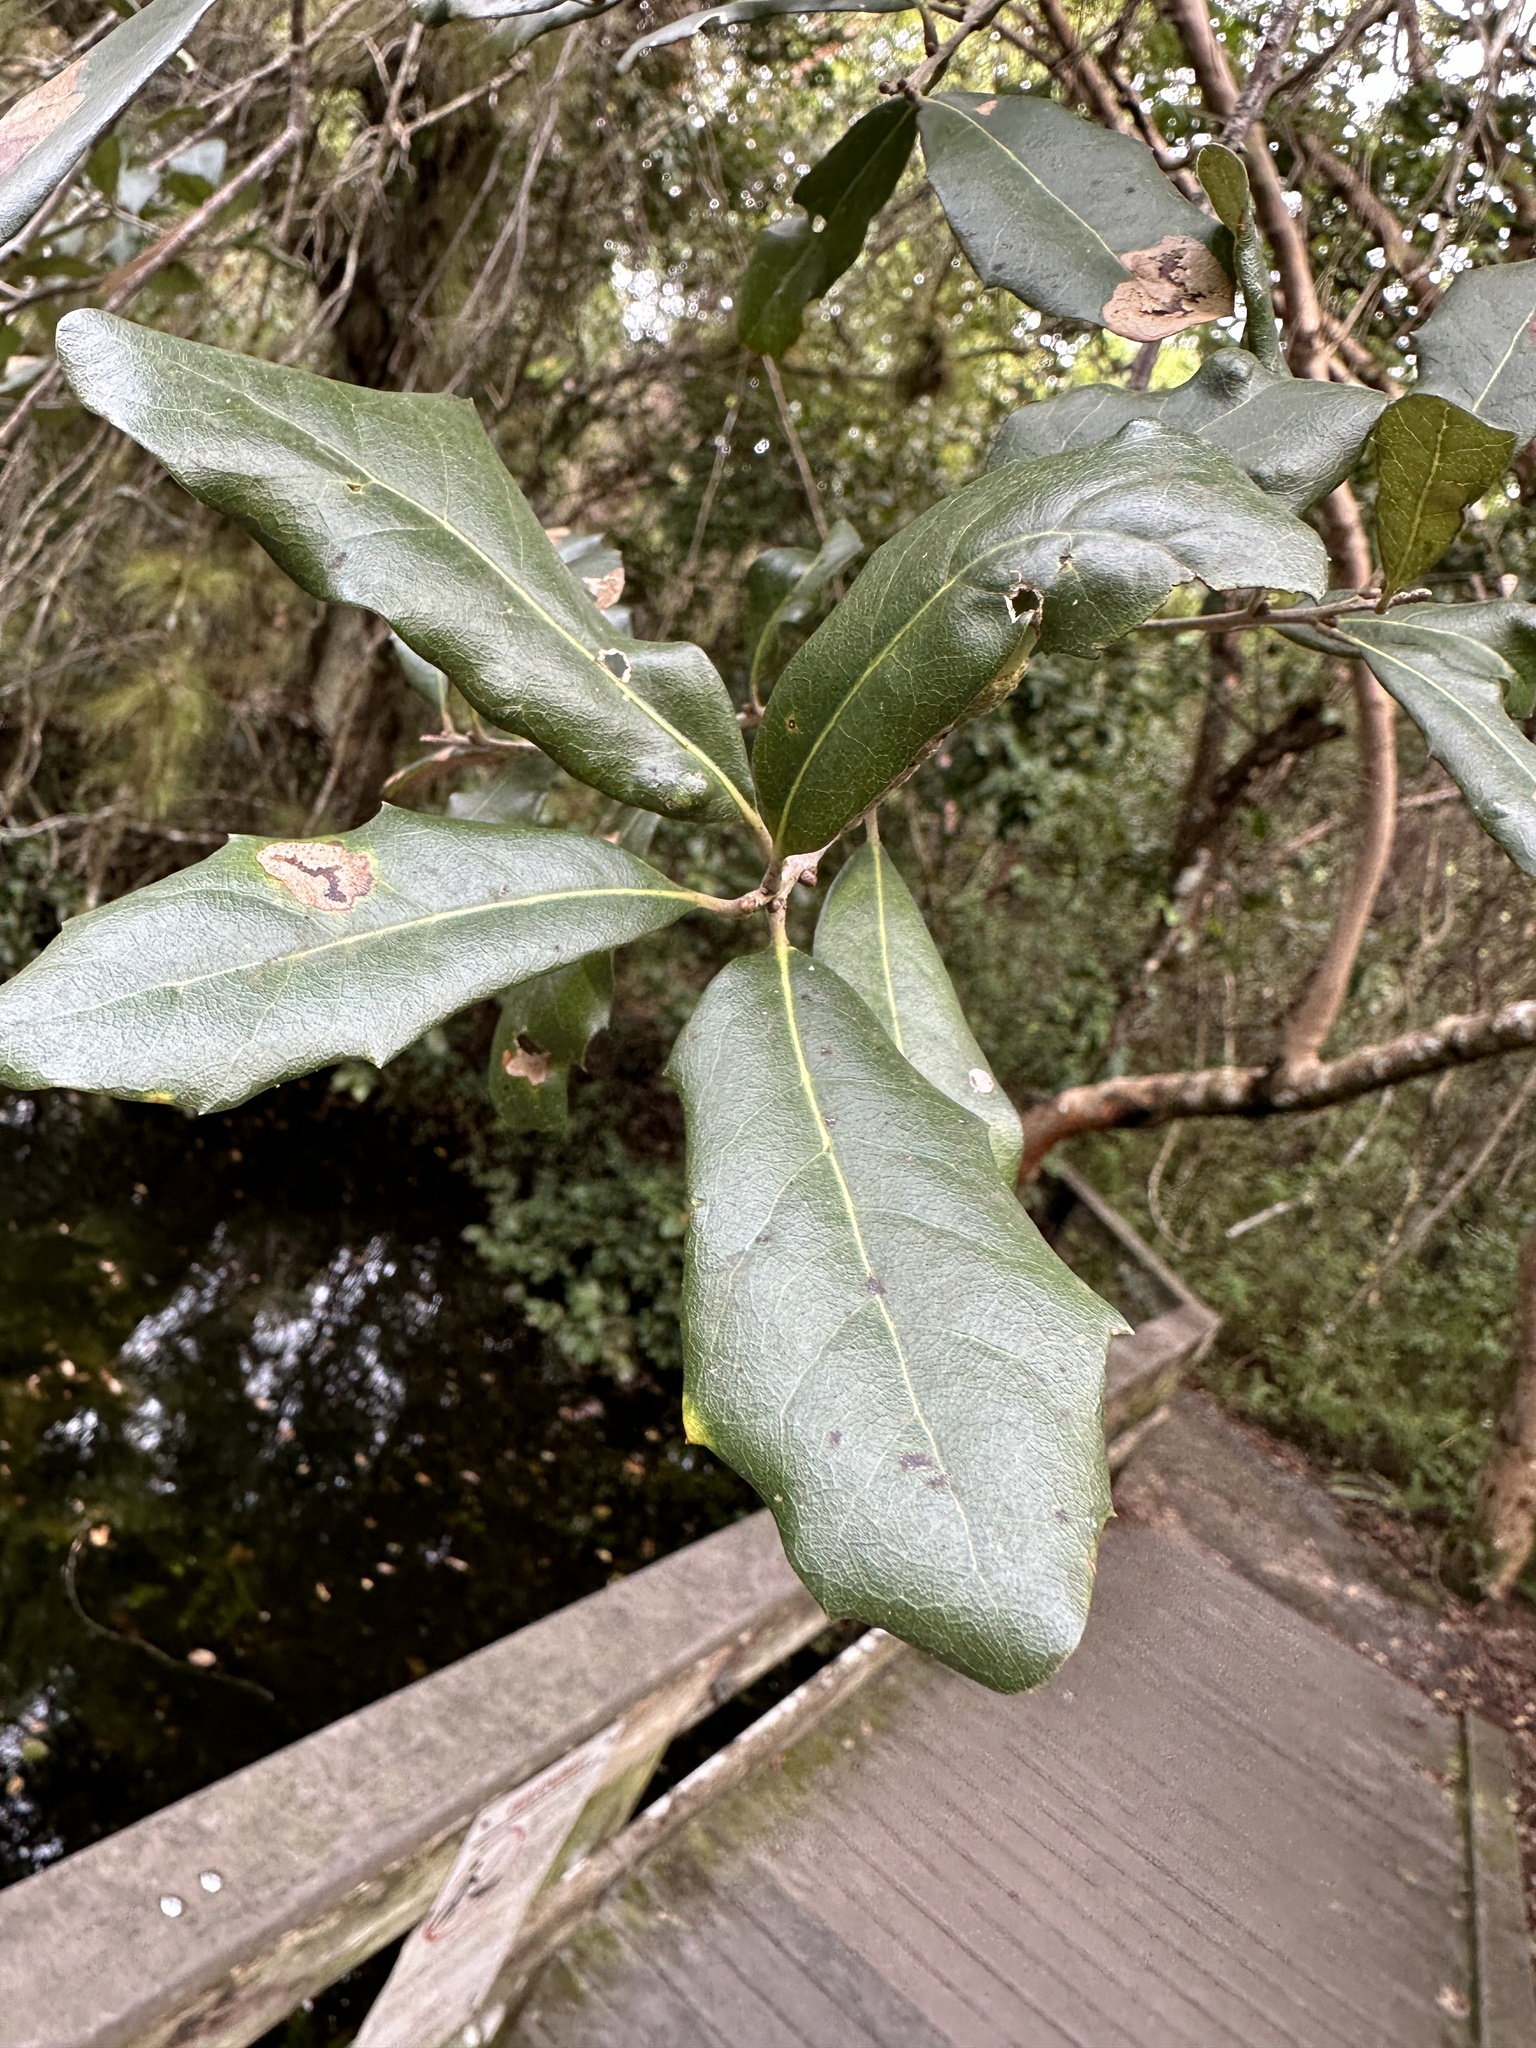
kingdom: Plantae
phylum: Tracheophyta
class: Magnoliopsida
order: Fagales
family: Fagaceae
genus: Quercus
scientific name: Quercus virginiana
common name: Southern live oak
